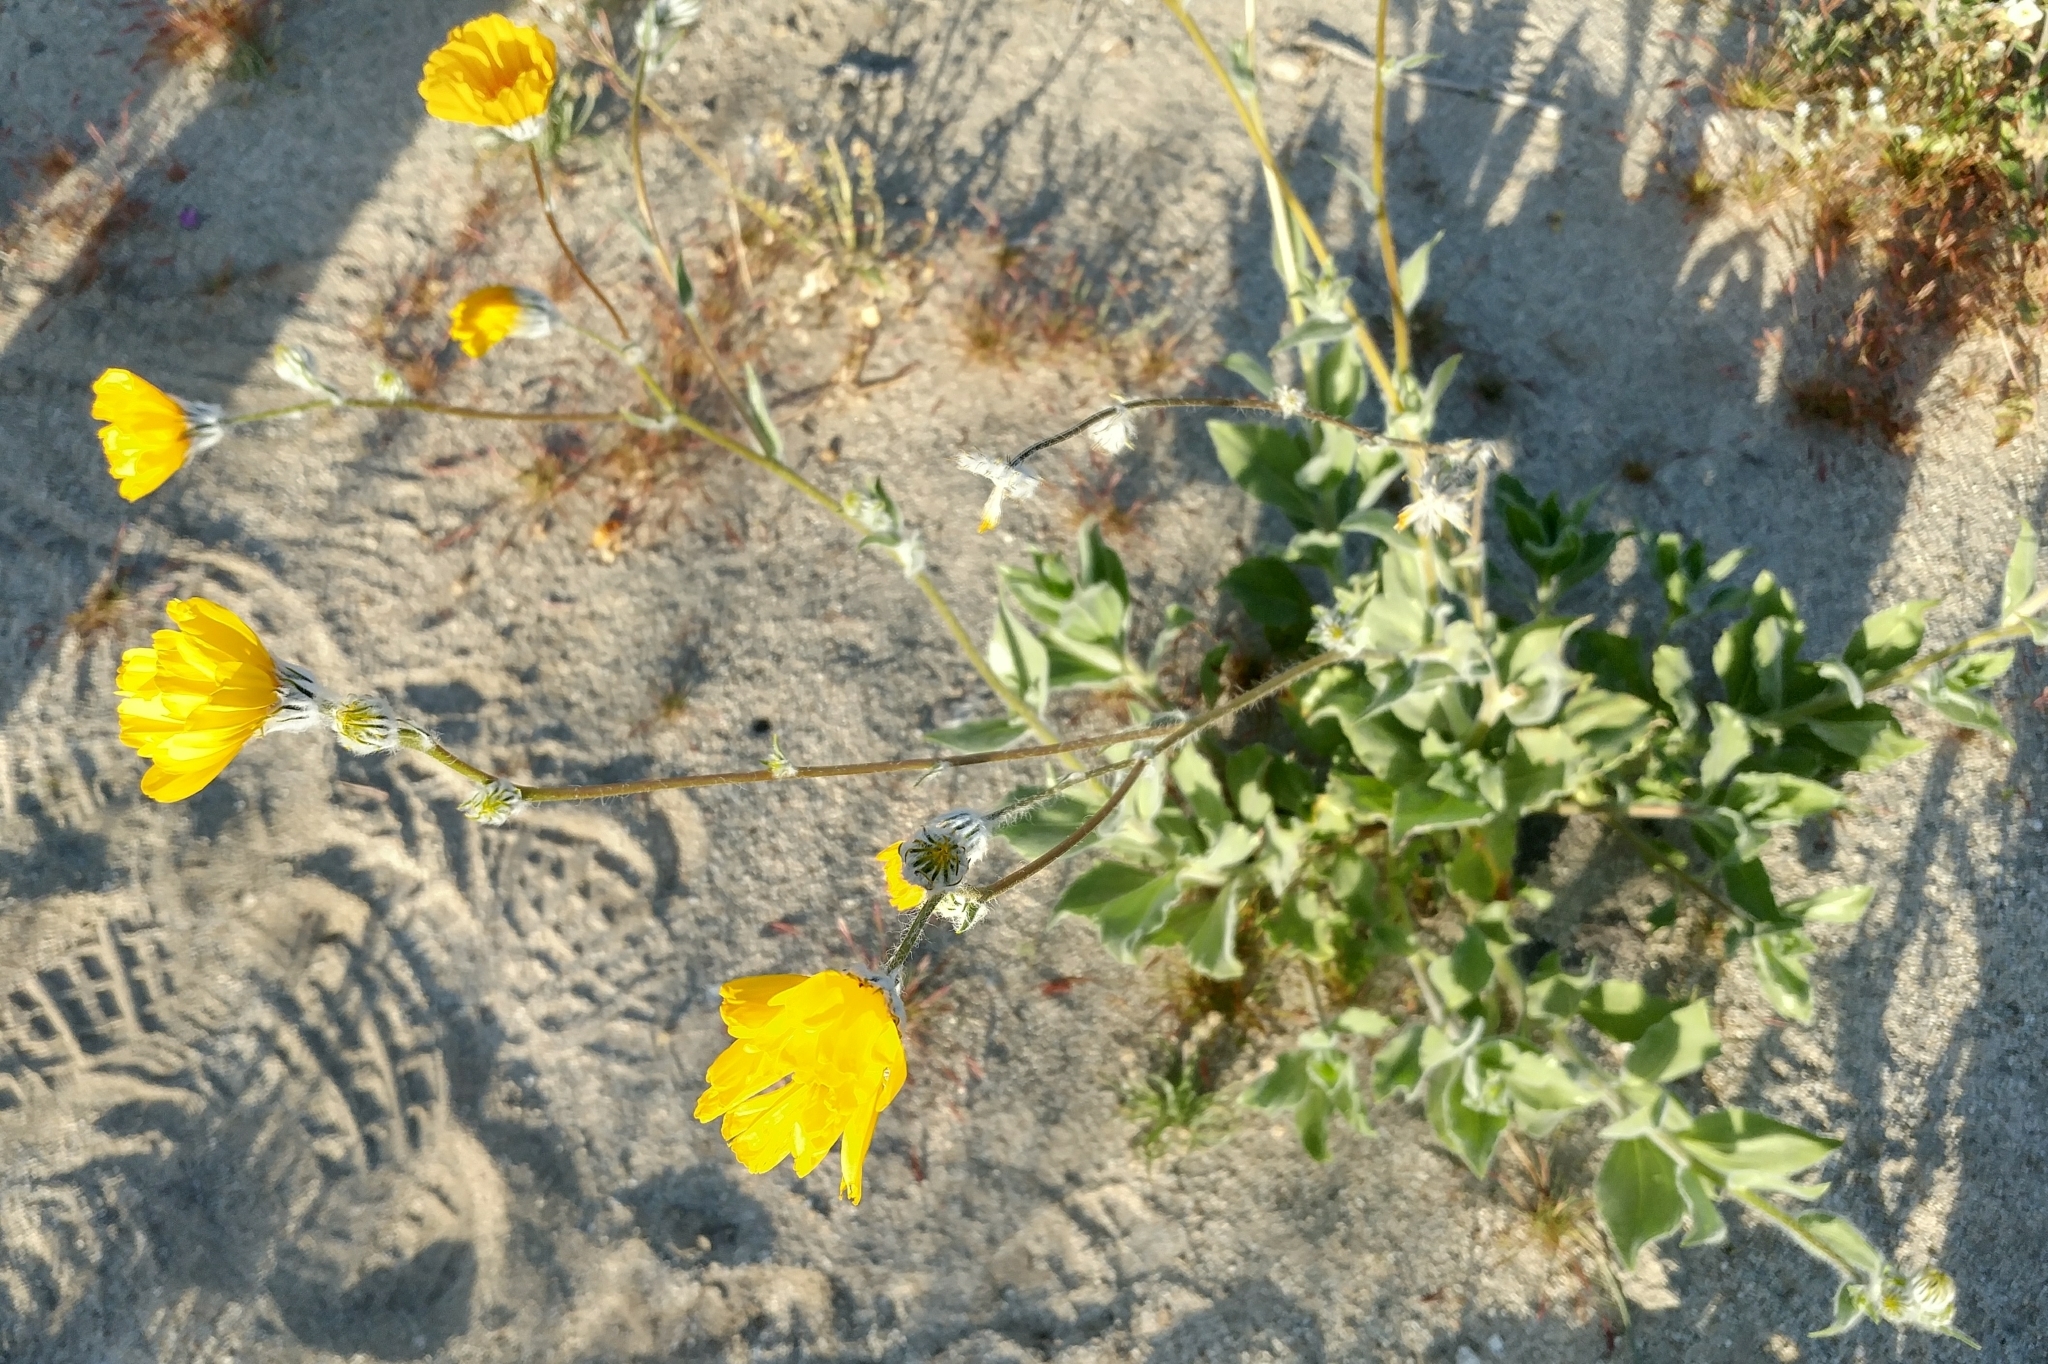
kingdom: Plantae
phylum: Tracheophyta
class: Magnoliopsida
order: Asterales
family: Asteraceae
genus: Geraea
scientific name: Geraea canescens
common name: Desert-gold
